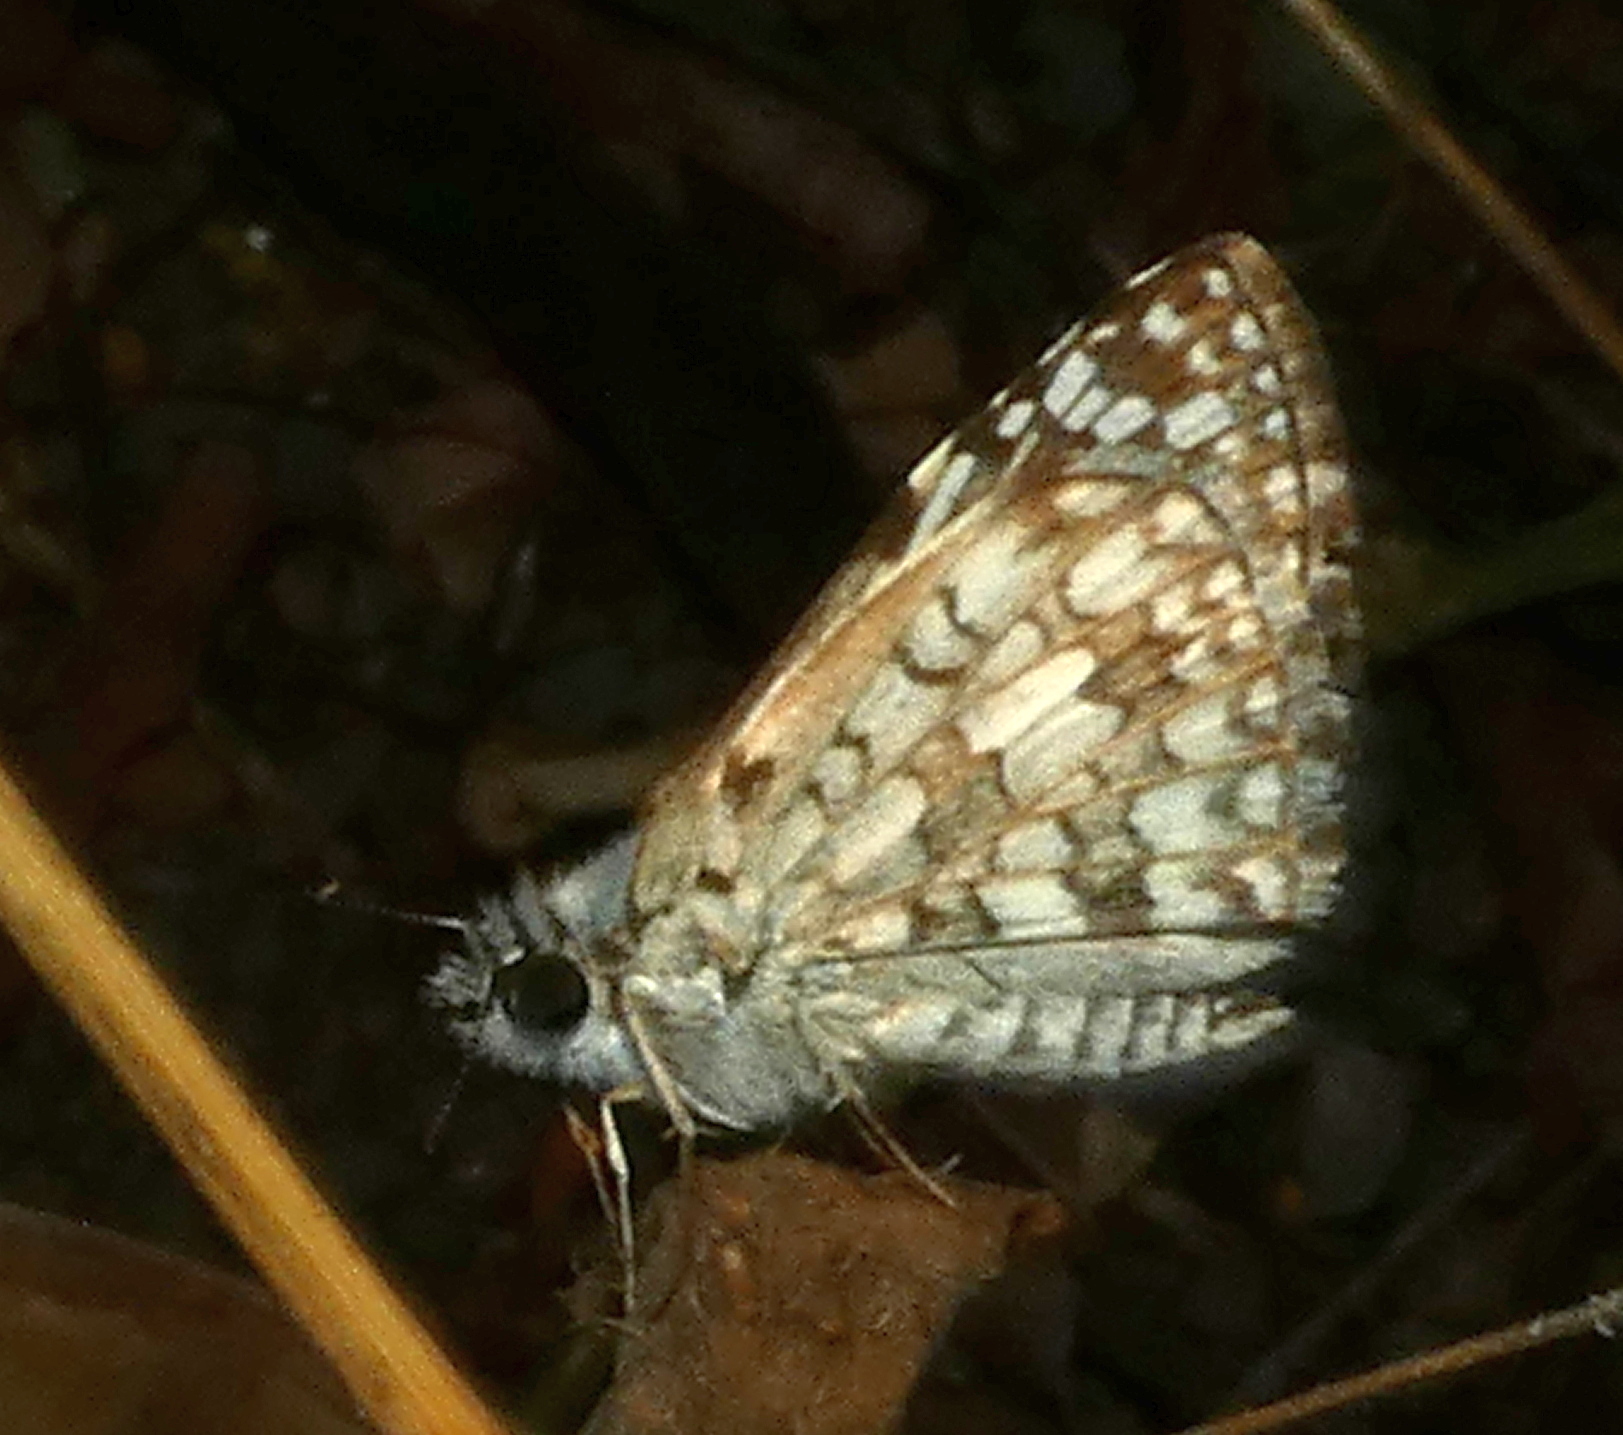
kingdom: Animalia
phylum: Arthropoda
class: Insecta
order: Lepidoptera
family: Hesperiidae
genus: Pyrgus
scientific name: Pyrgus oileus
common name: Tropical checkered-skipper
